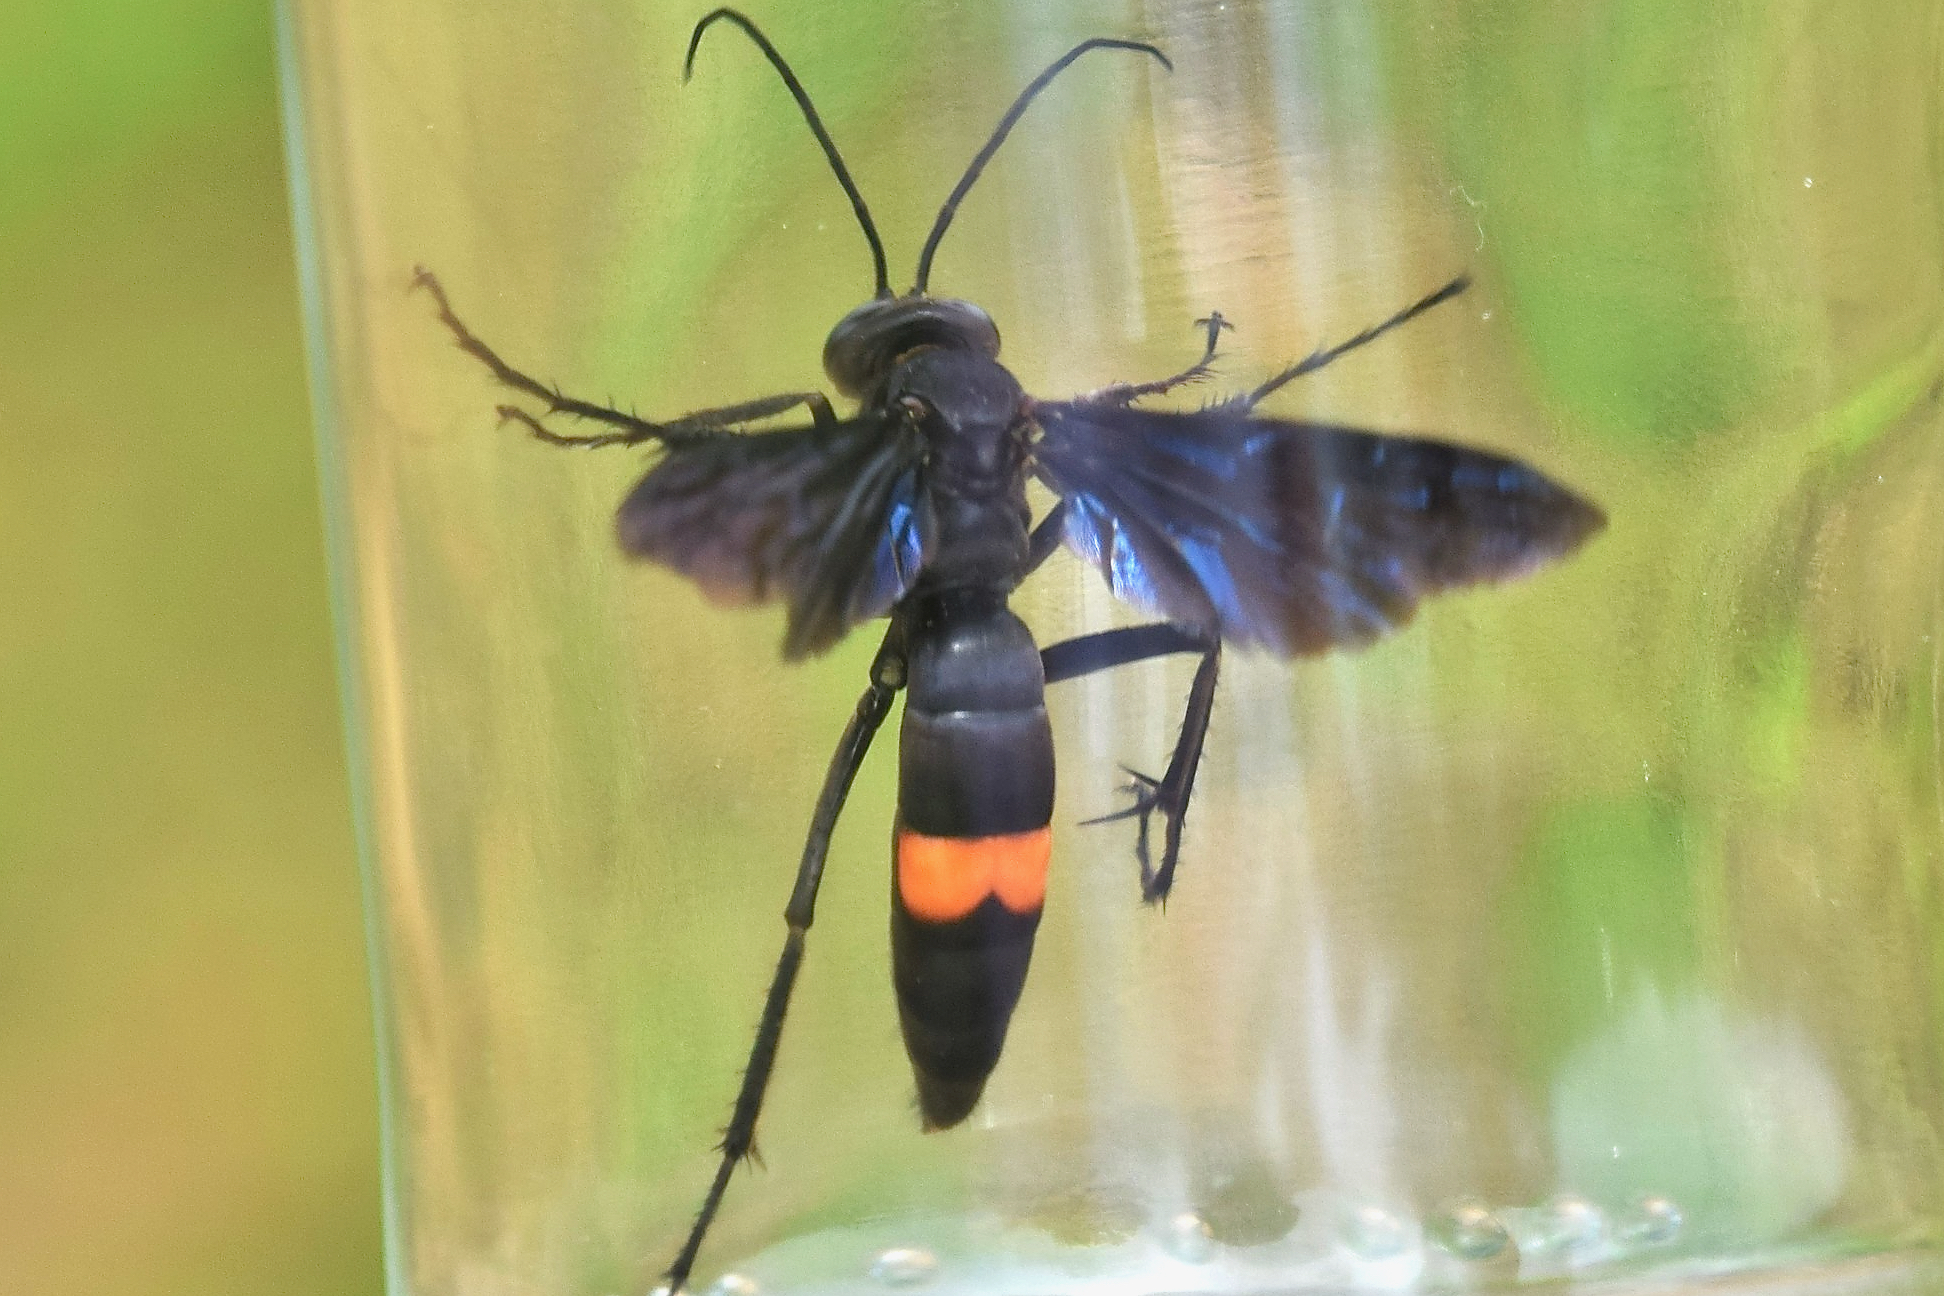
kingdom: Animalia
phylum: Arthropoda
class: Insecta
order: Hymenoptera
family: Pompilidae
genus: Poecilopompilus
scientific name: Poecilopompilus algidus
